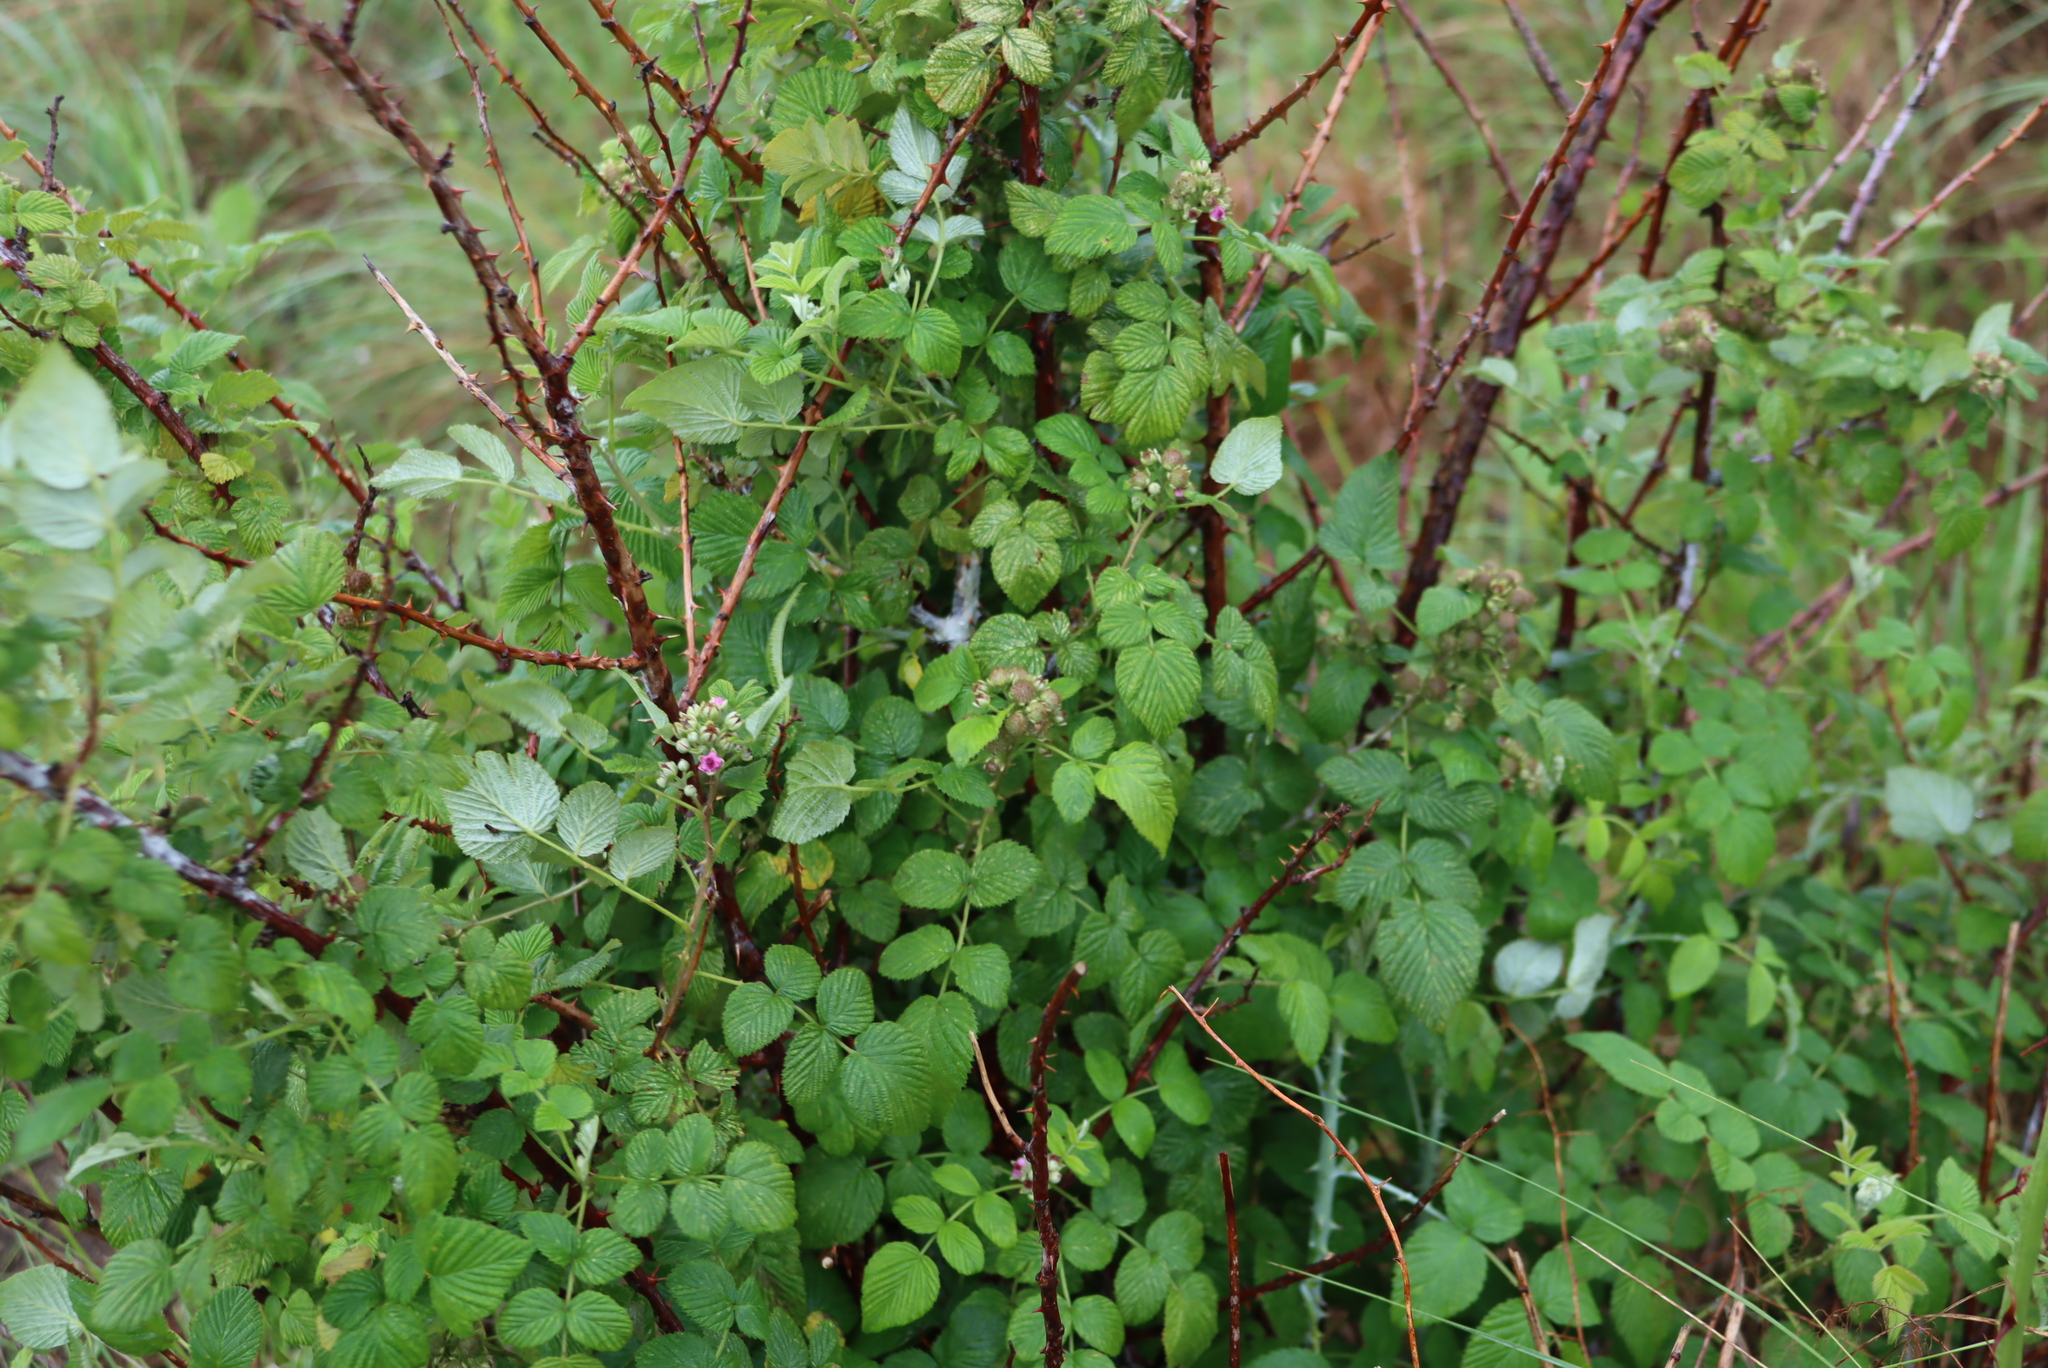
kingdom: Plantae
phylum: Tracheophyta
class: Magnoliopsida
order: Rosales
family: Rosaceae
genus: Rubus
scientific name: Rubus niveus
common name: Snowpeaks raspberry
